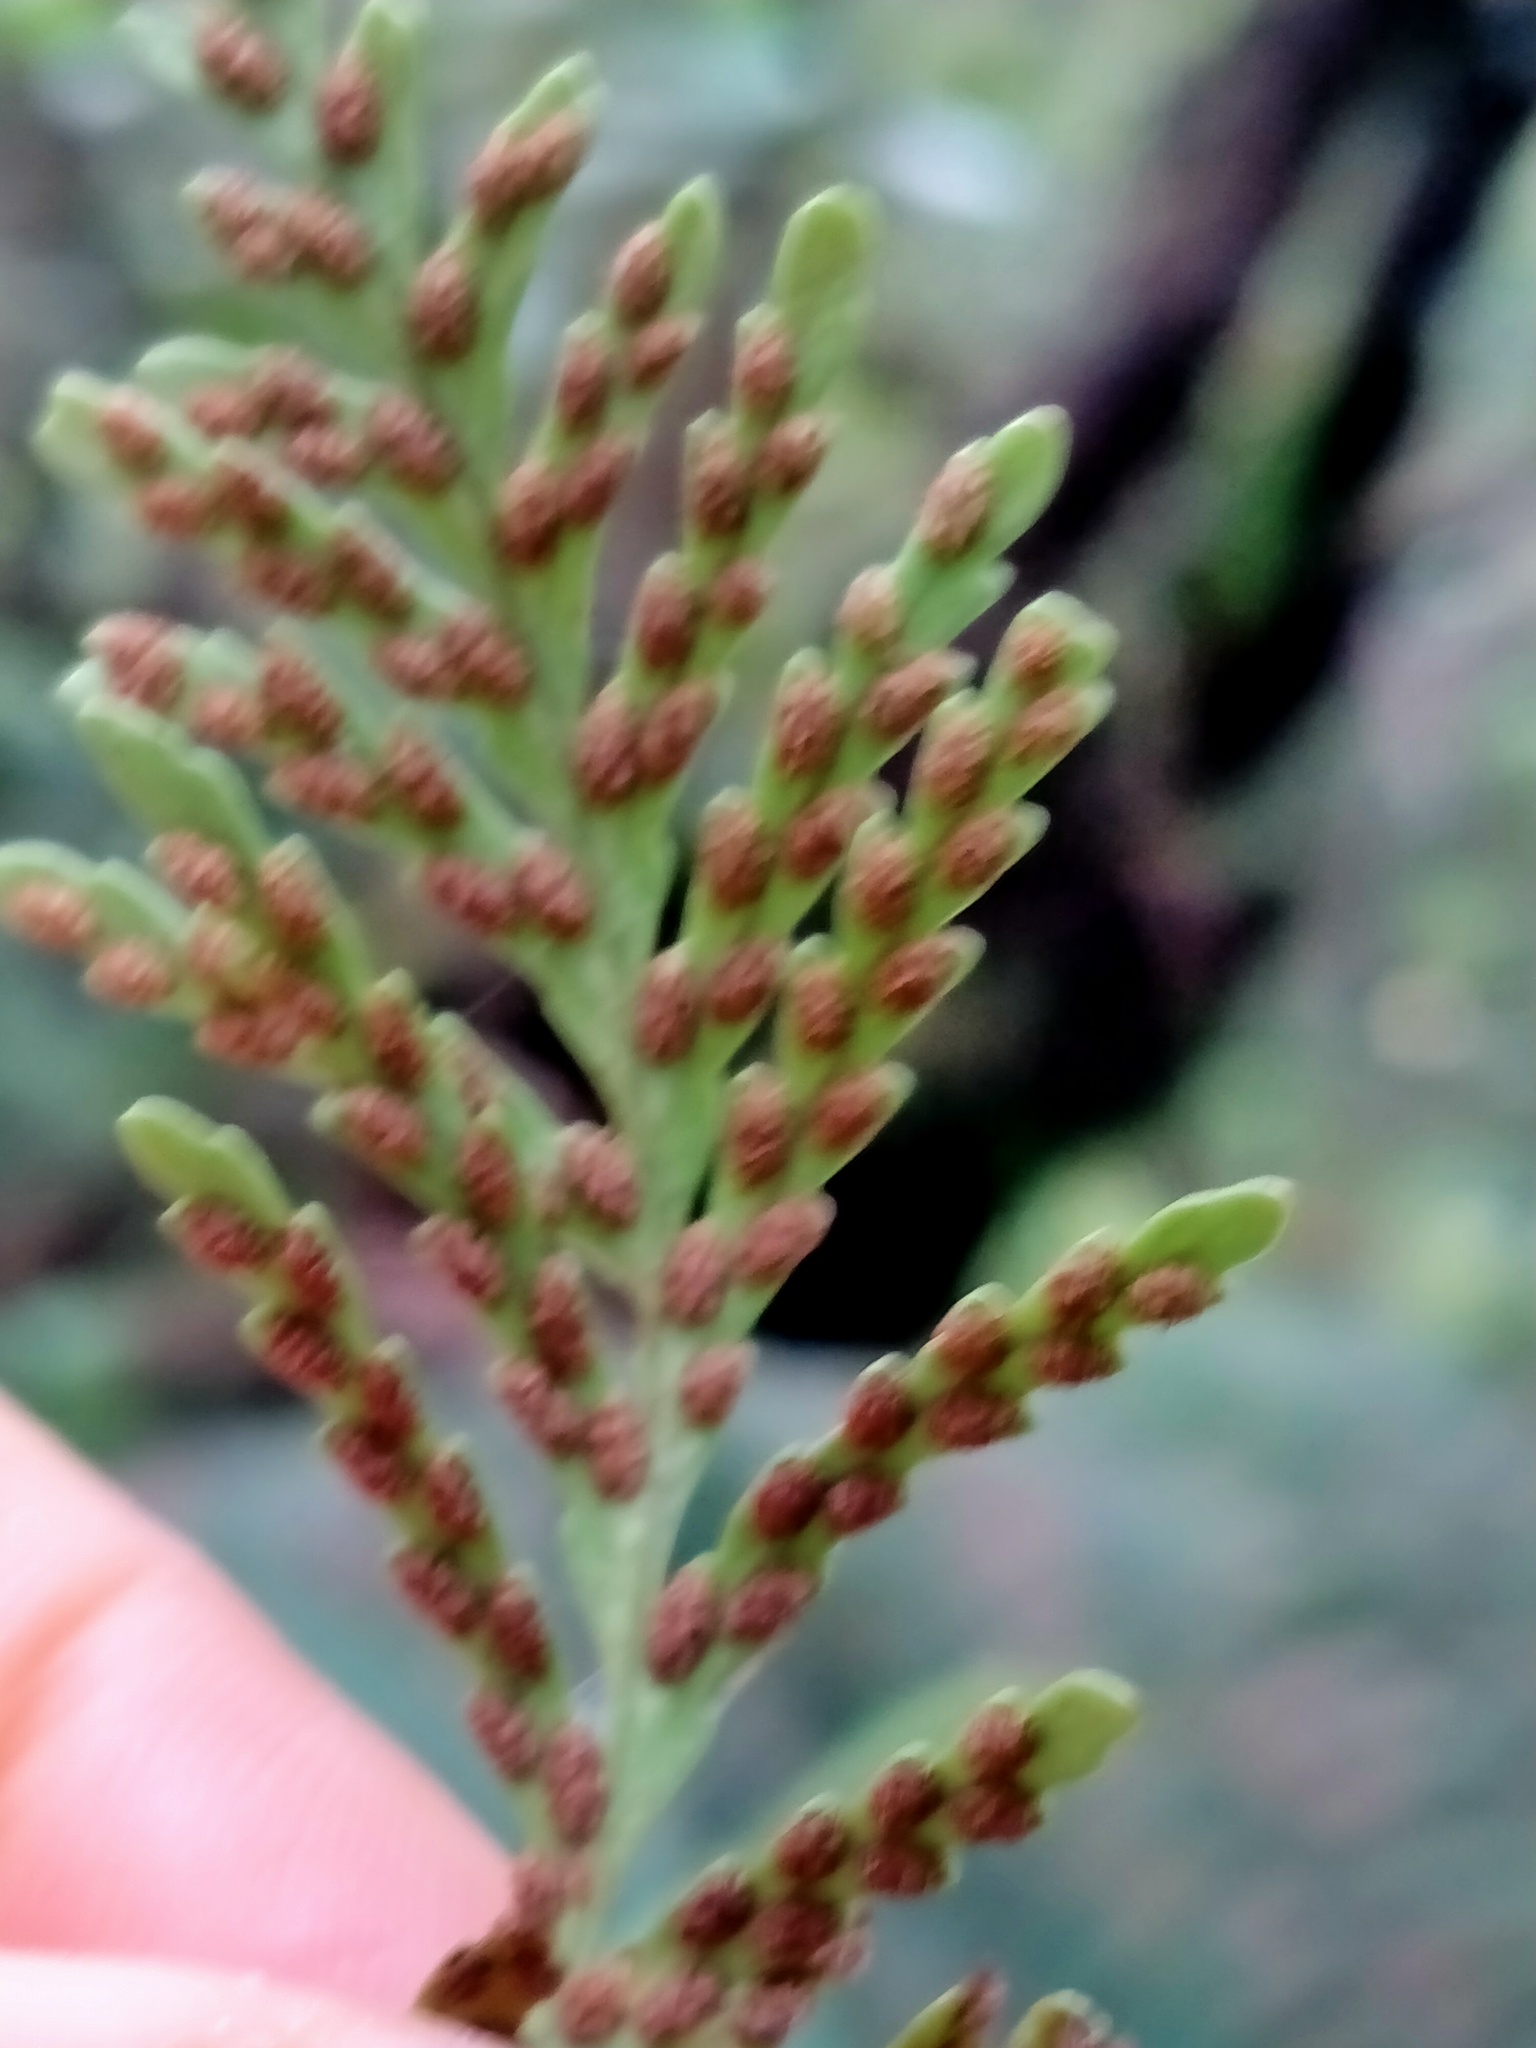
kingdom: Plantae
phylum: Tracheophyta
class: Polypodiopsida
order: Polypodiales
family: Polypodiaceae
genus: Notogrammitis
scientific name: Notogrammitis heterophylla
